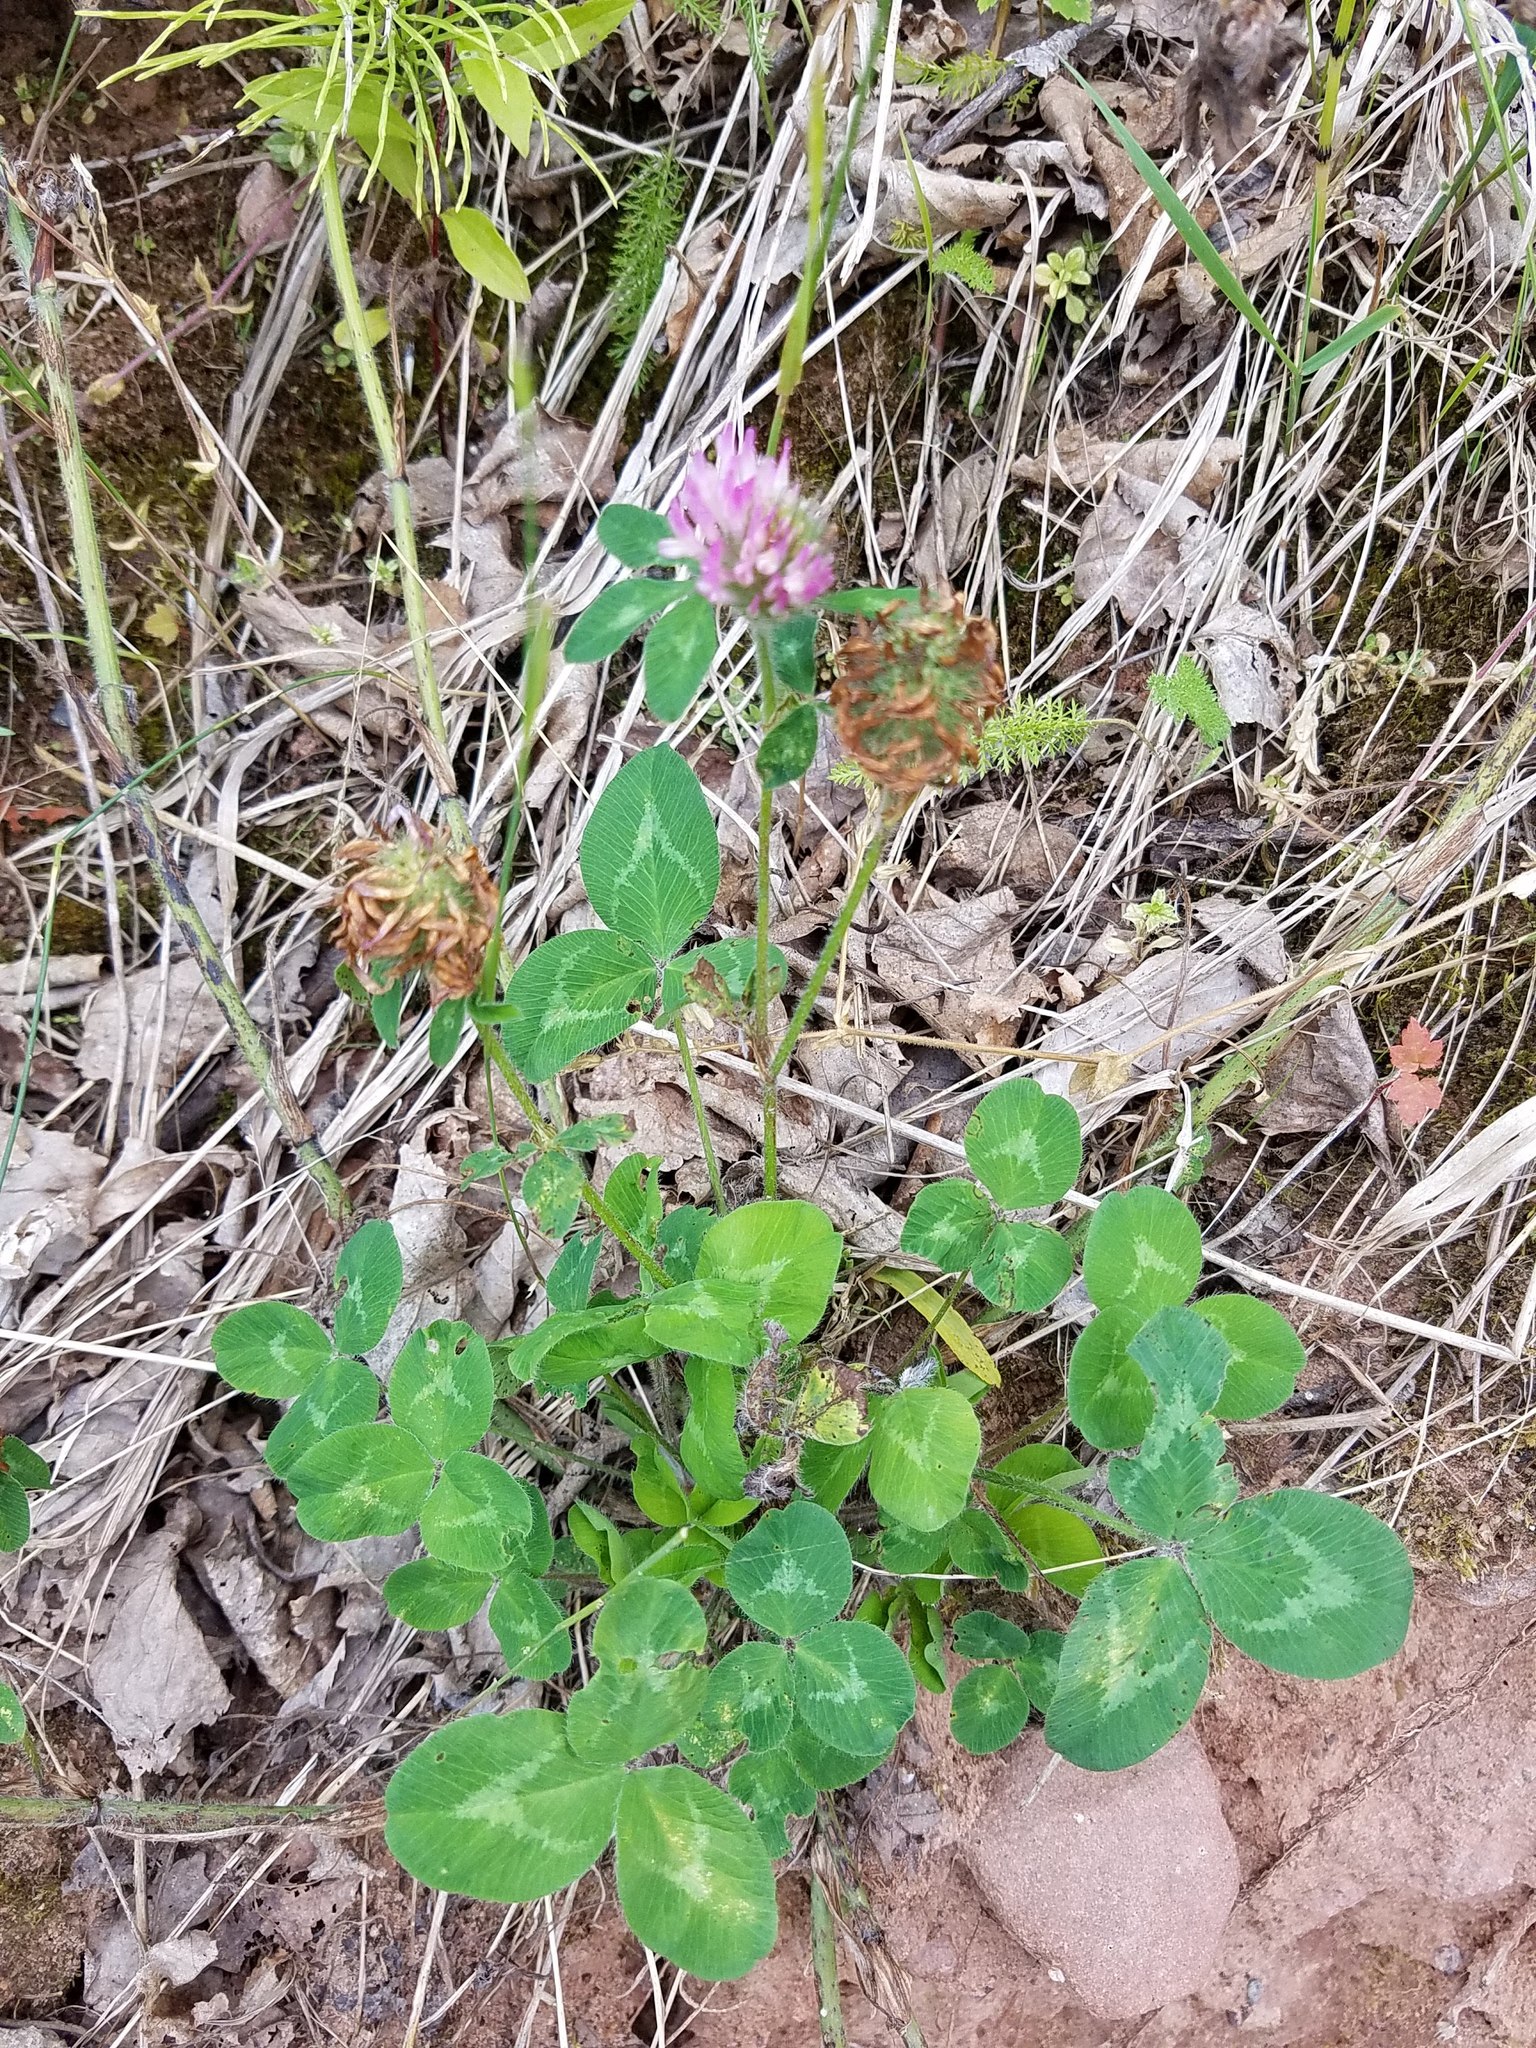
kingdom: Plantae
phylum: Tracheophyta
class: Magnoliopsida
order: Fabales
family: Fabaceae
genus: Trifolium
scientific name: Trifolium pratense
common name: Red clover
